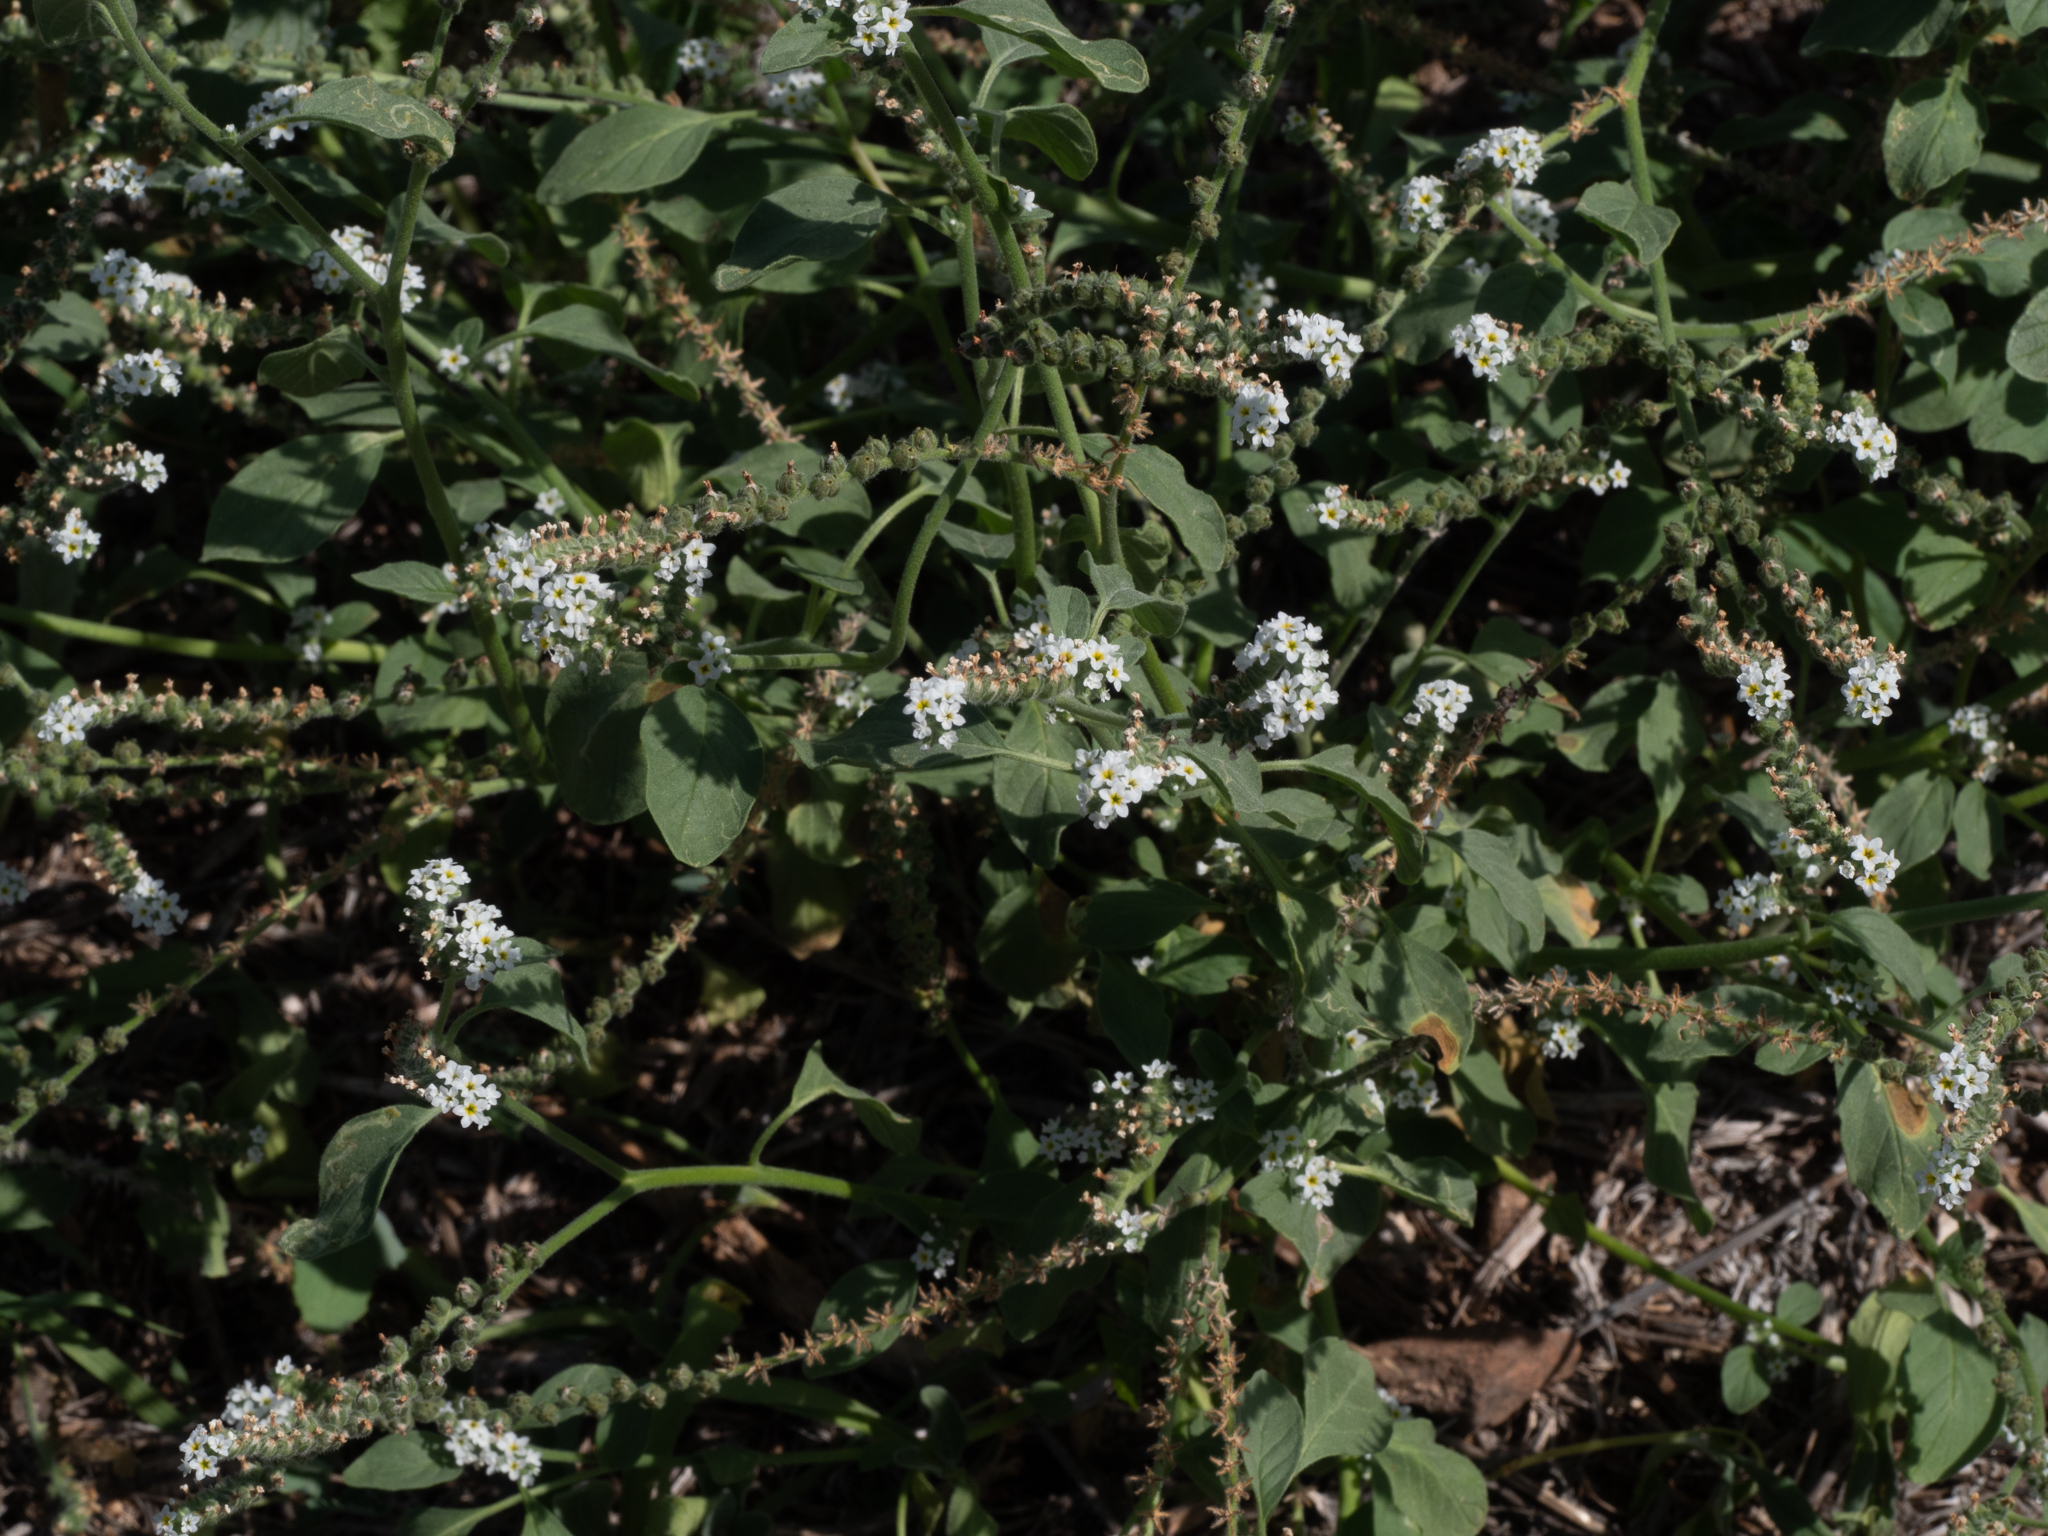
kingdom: Plantae
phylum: Tracheophyta
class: Magnoliopsida
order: Boraginales
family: Heliotropiaceae
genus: Heliotropium
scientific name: Heliotropium europaeum
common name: European heliotrope
